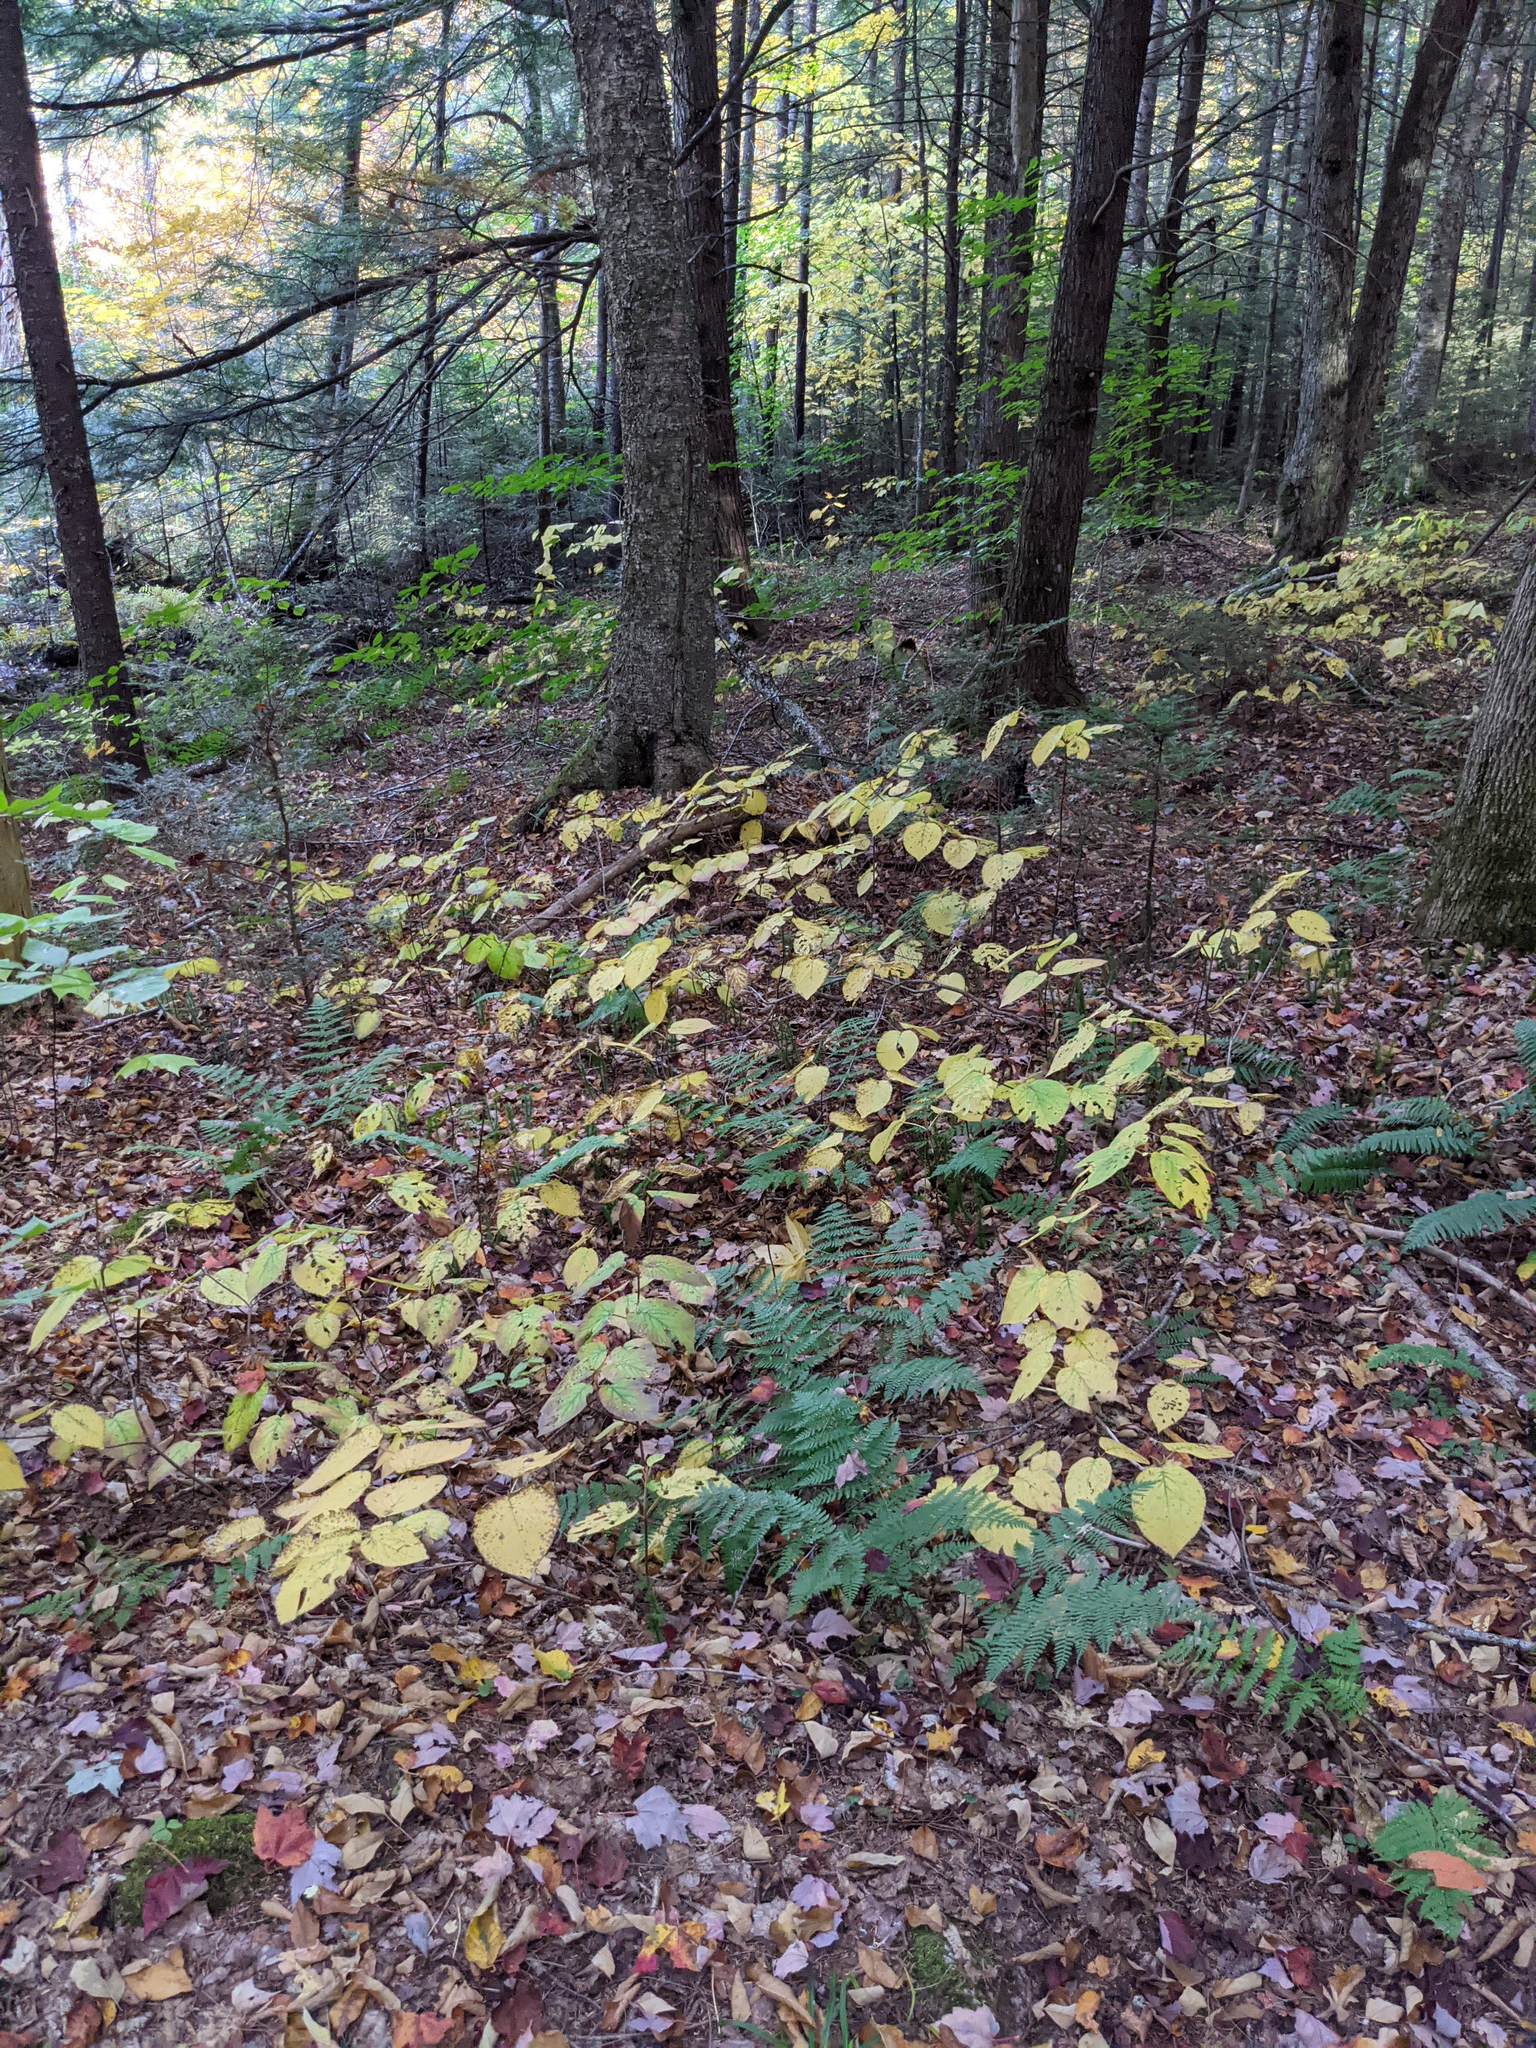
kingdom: Plantae
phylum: Tracheophyta
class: Magnoliopsida
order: Dipsacales
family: Viburnaceae
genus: Viburnum
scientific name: Viburnum lantanoides
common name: Hobblebush
